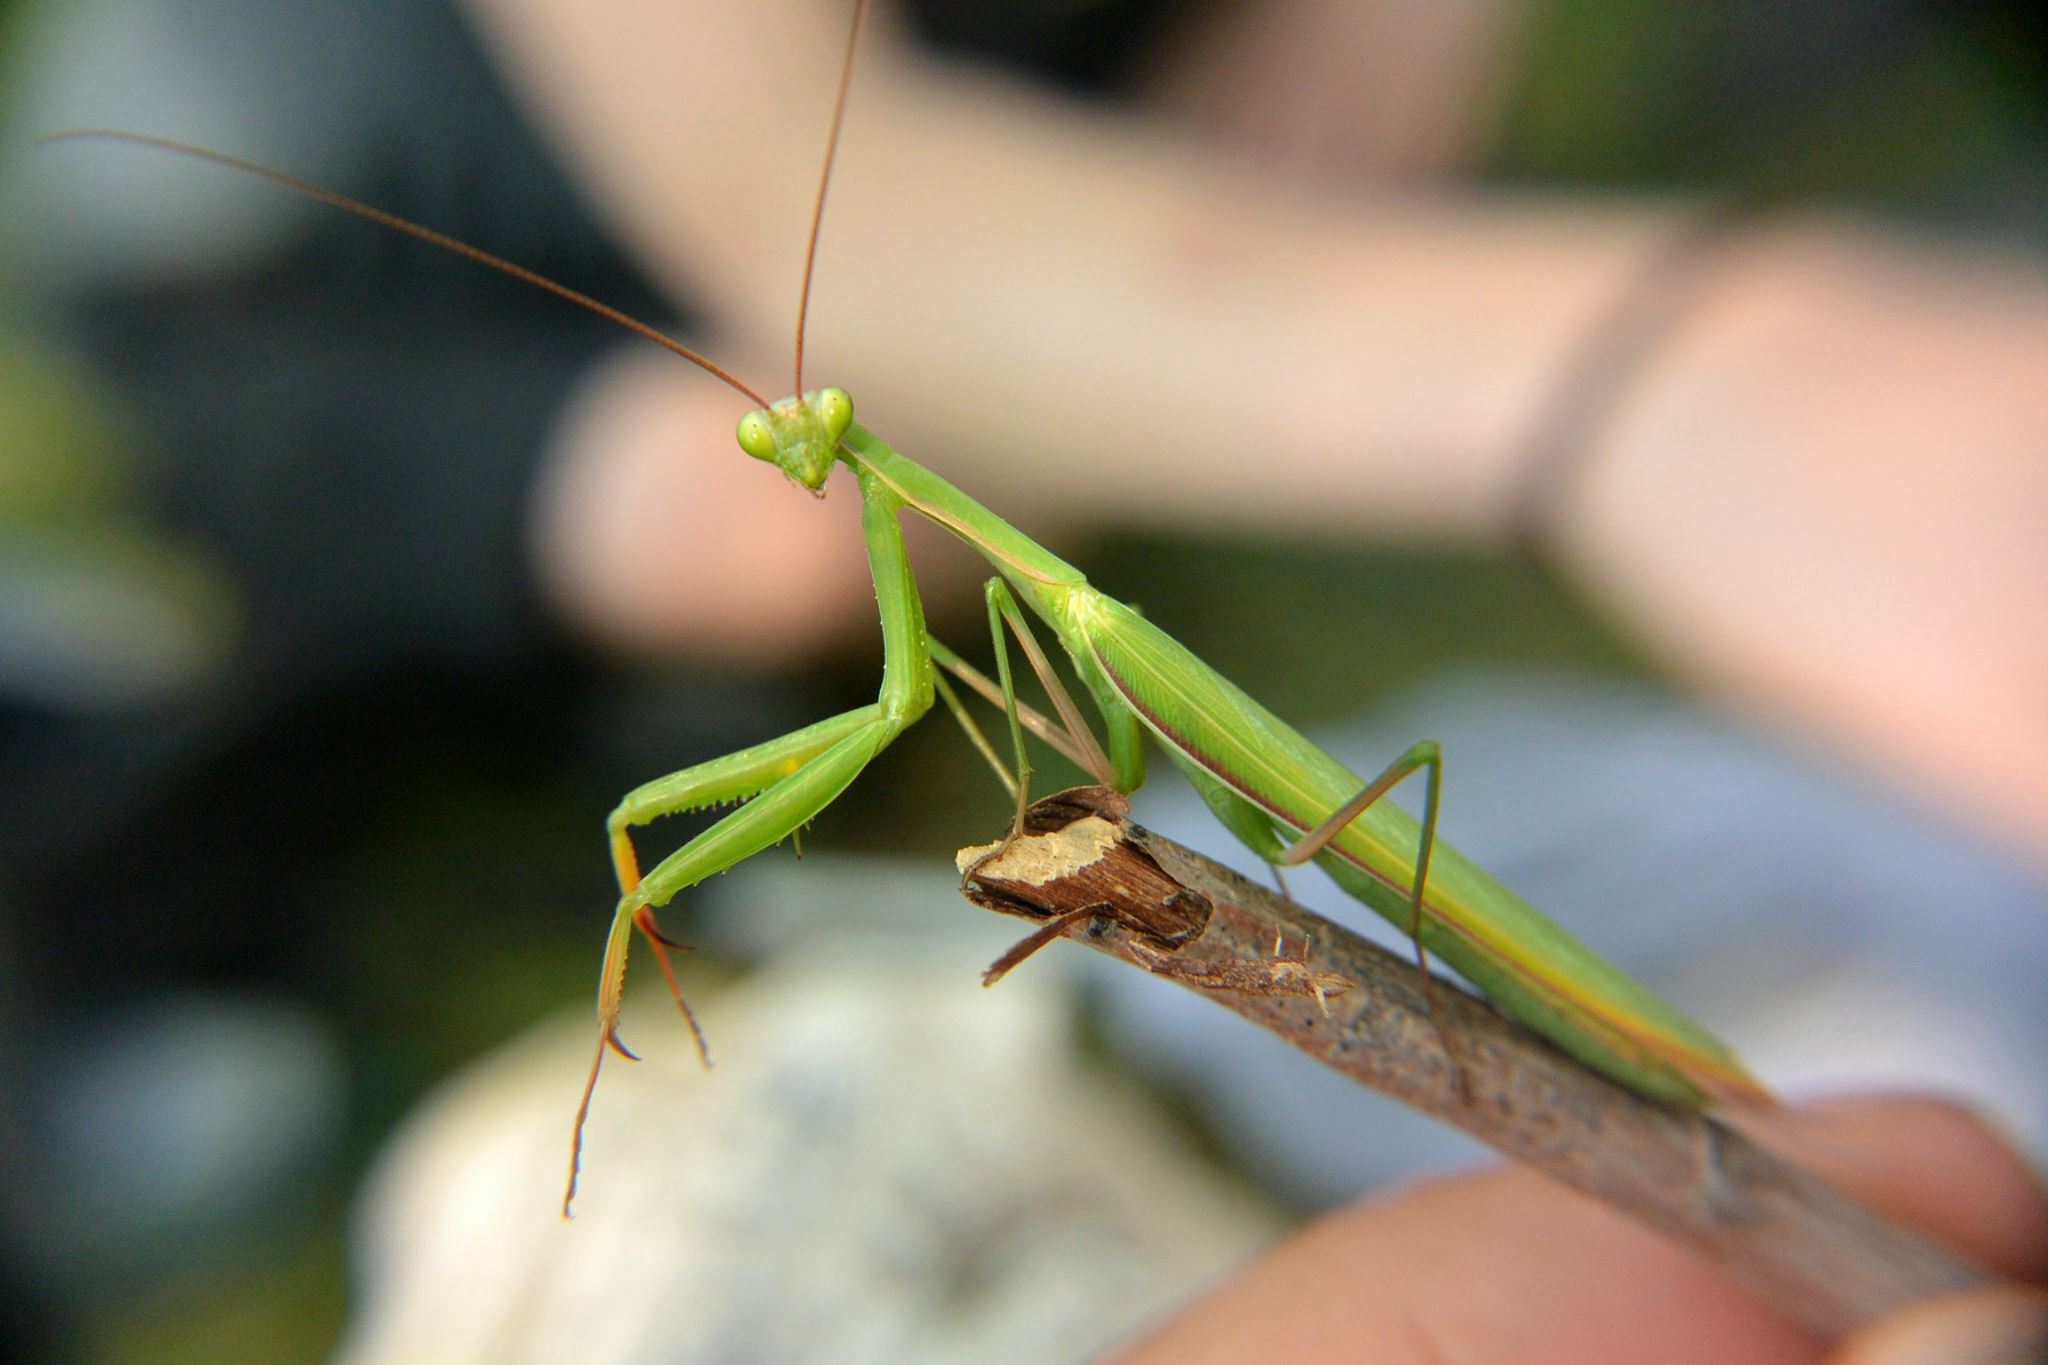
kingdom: Animalia
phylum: Arthropoda
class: Insecta
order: Mantodea
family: Mantidae
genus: Mantis
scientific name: Mantis religiosa
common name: Praying mantis
